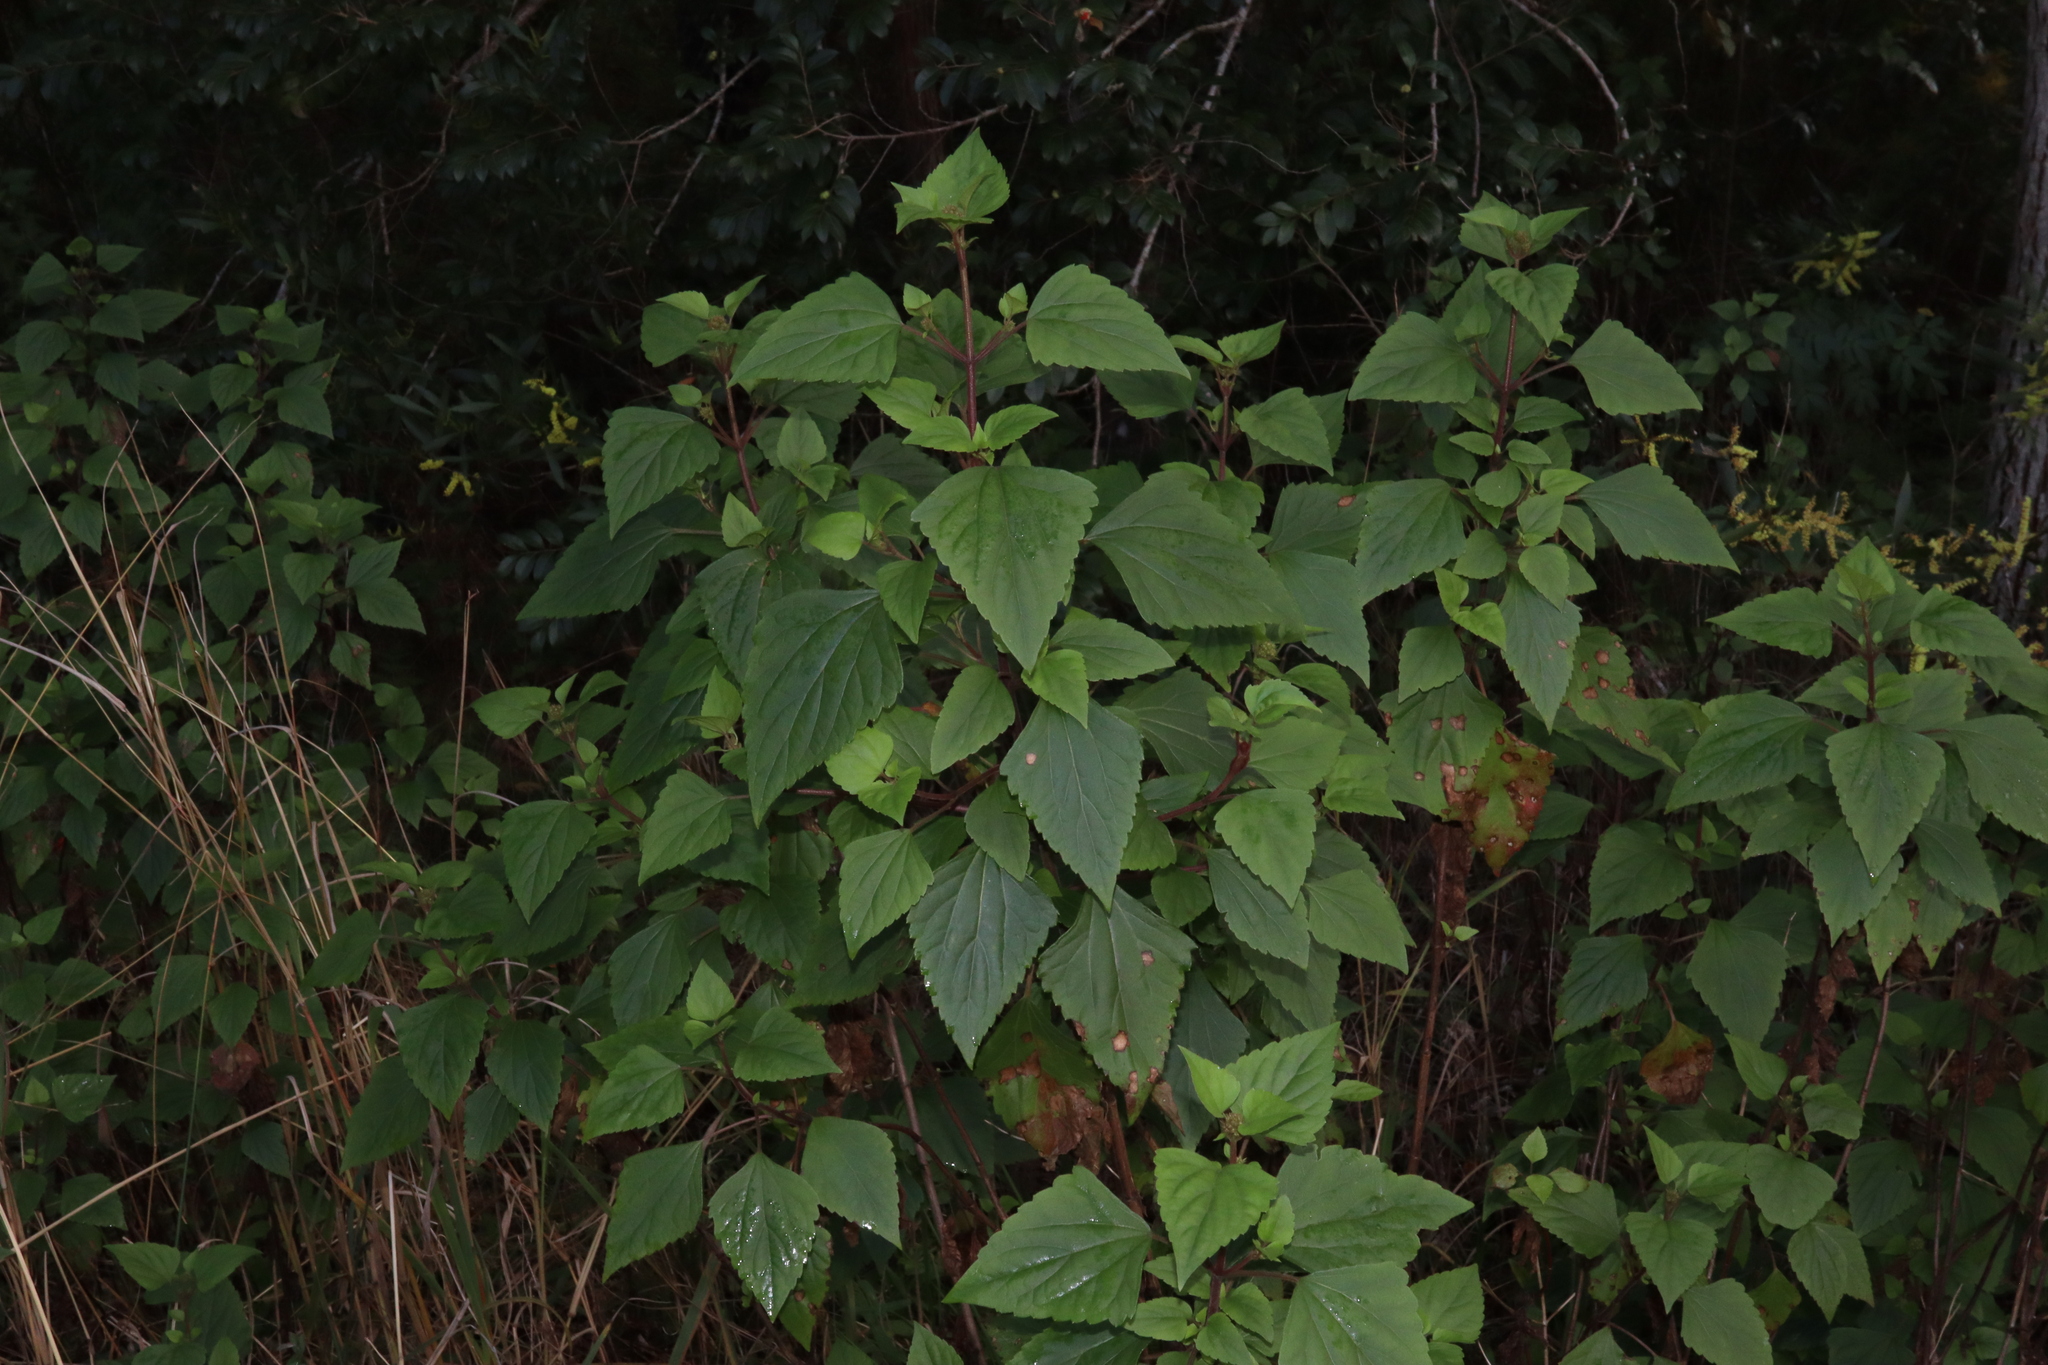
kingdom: Plantae
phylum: Tracheophyta
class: Magnoliopsida
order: Asterales
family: Asteraceae
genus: Ageratina
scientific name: Ageratina adenophora
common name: Sticky snakeroot
